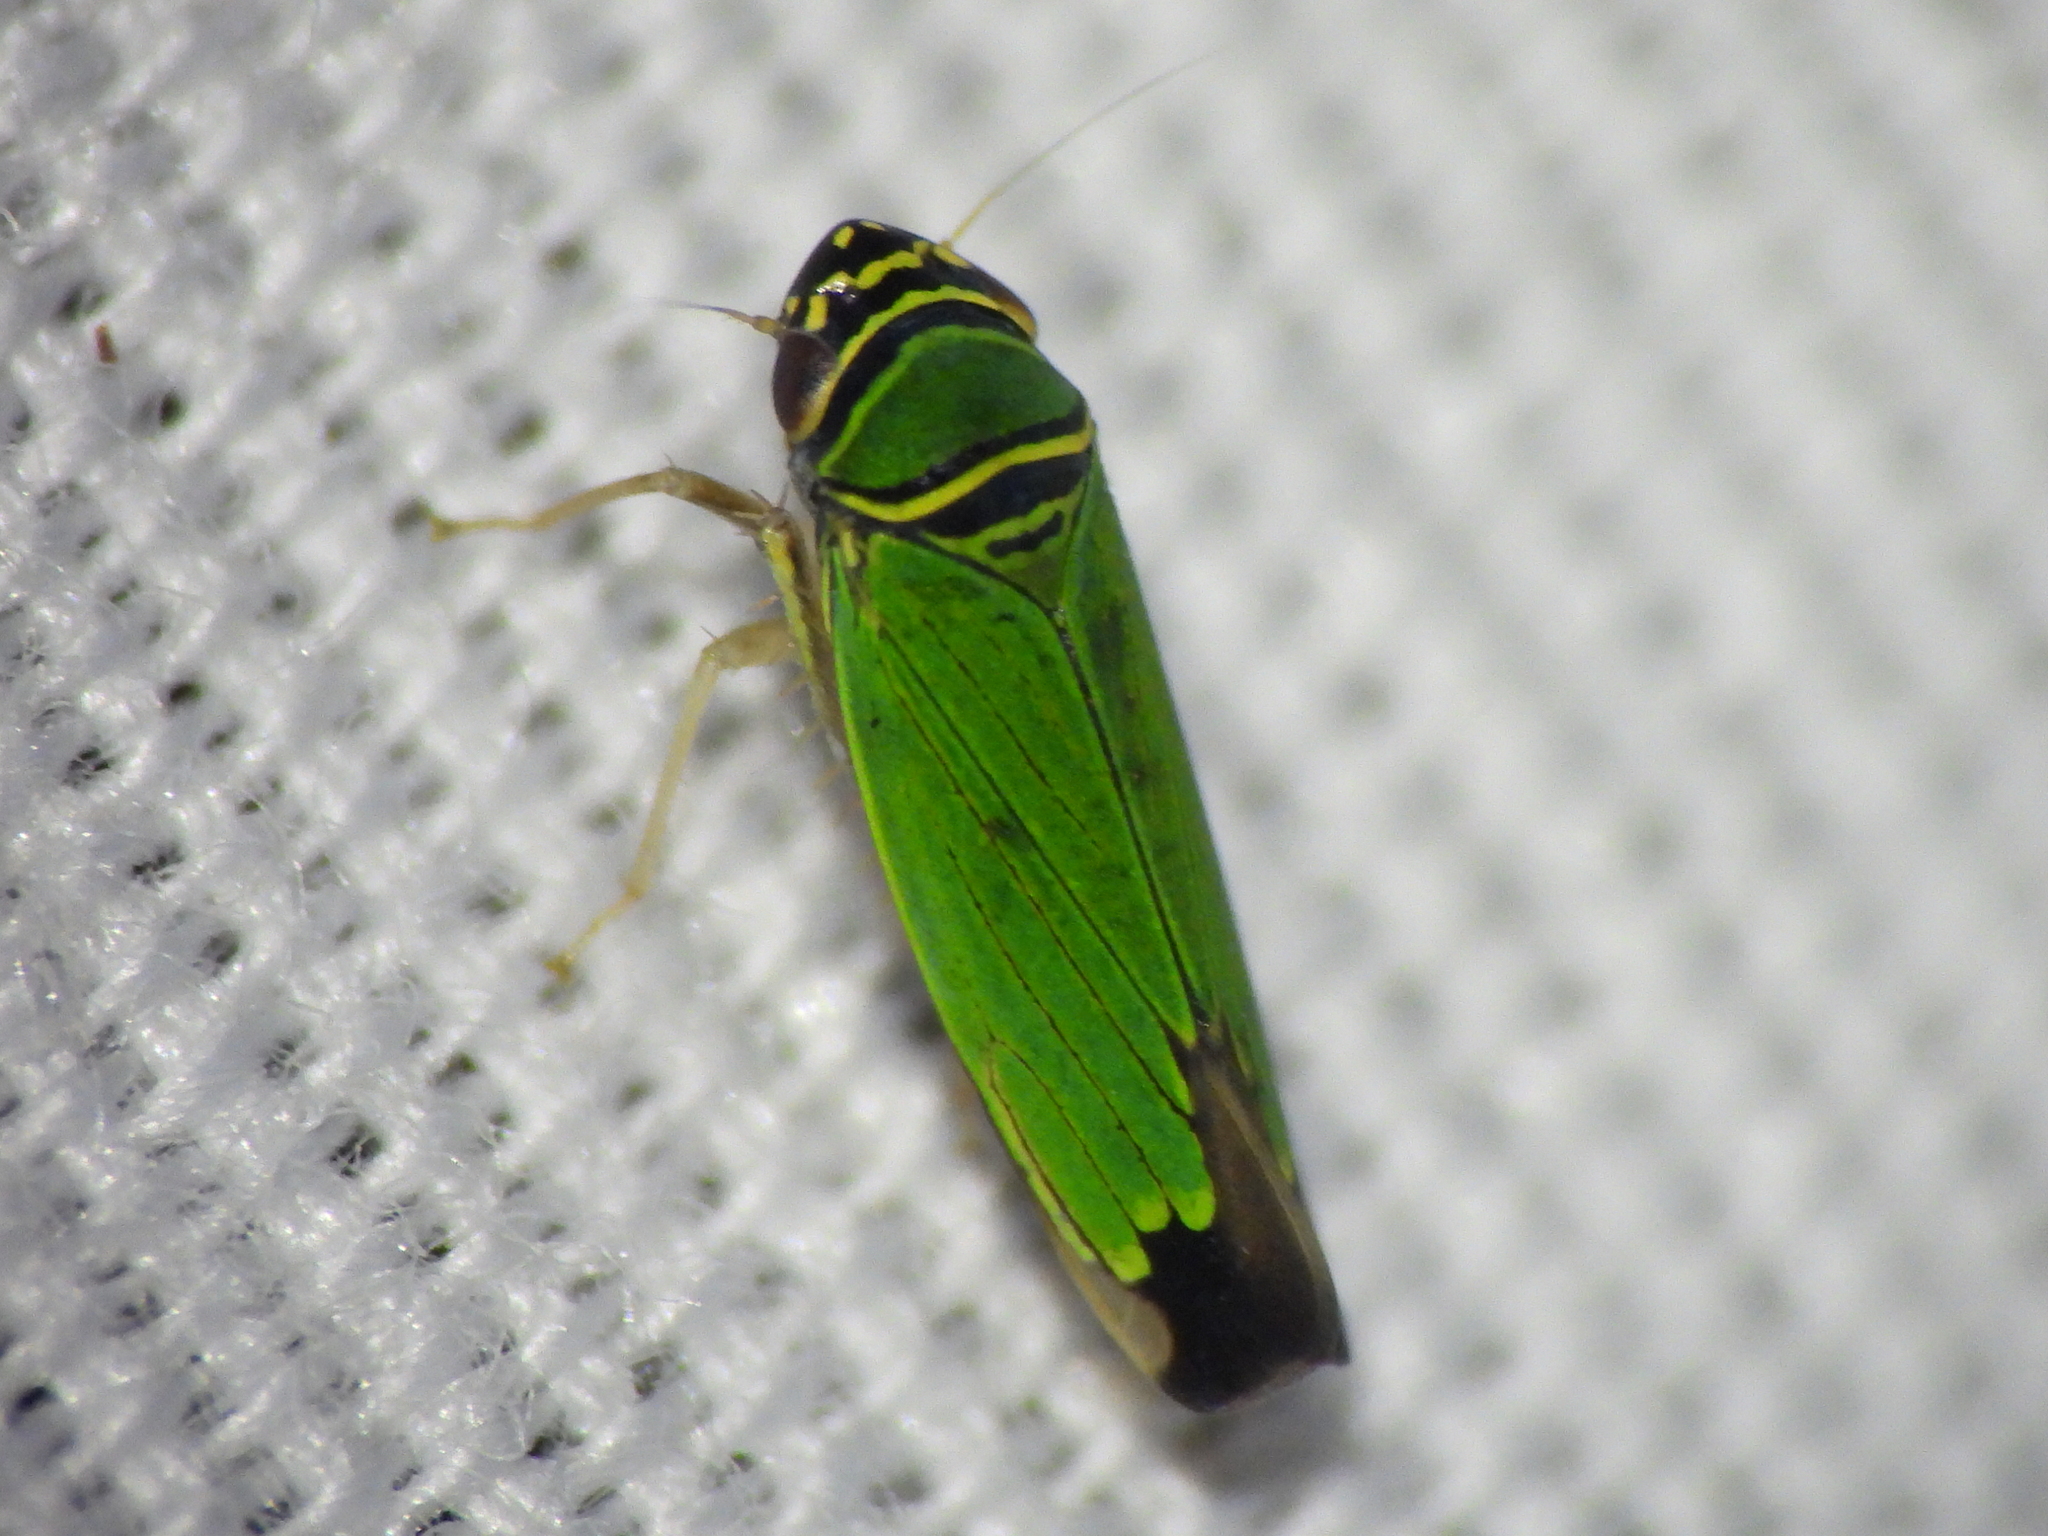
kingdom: Animalia
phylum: Arthropoda
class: Insecta
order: Hemiptera
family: Cicadellidae
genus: Tylozygus
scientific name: Tylozygus geometricus
